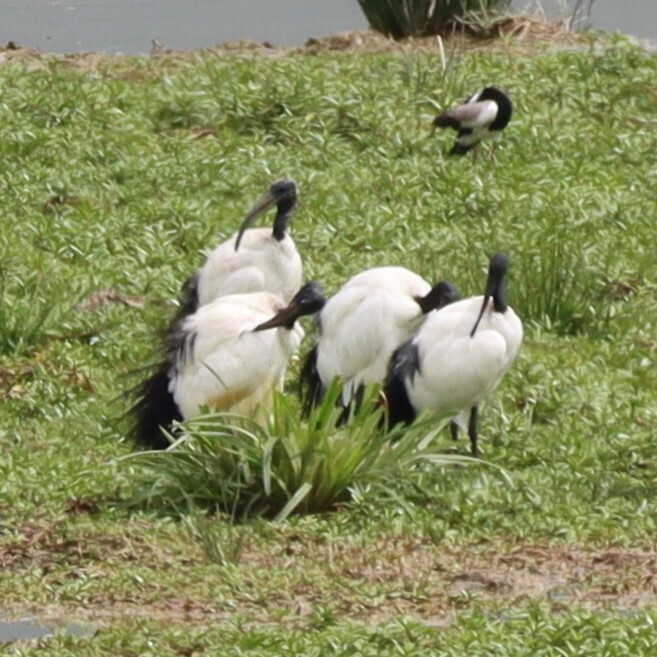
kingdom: Animalia
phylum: Chordata
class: Aves
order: Pelecaniformes
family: Threskiornithidae
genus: Threskiornis
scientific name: Threskiornis aethiopicus
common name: Sacred ibis
